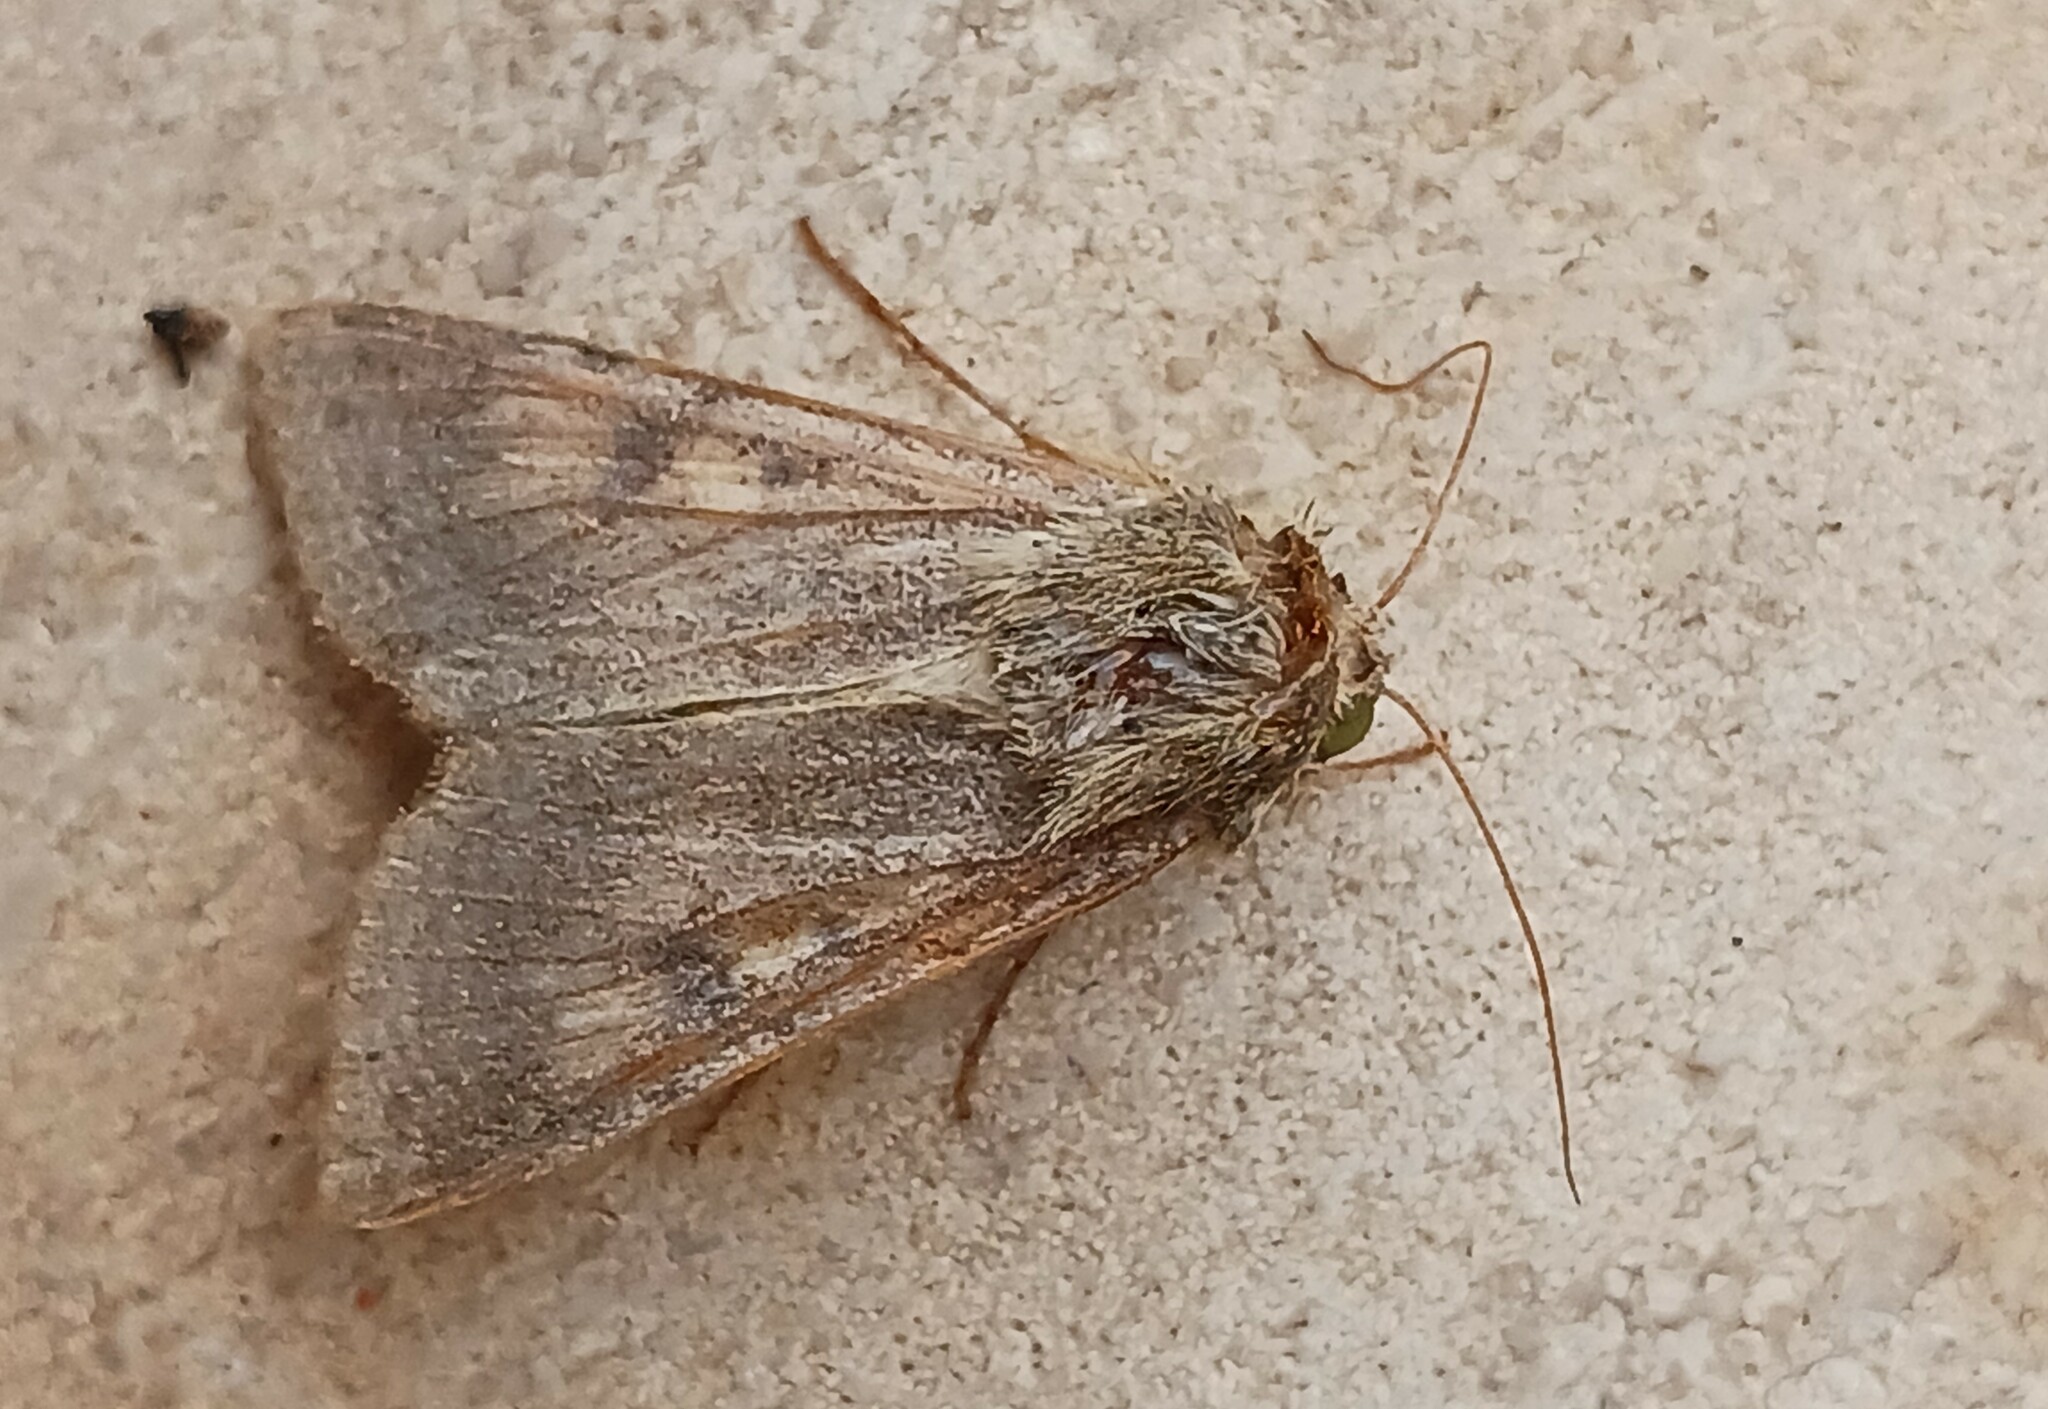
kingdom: Animalia
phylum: Arthropoda
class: Insecta
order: Lepidoptera
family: Noctuidae
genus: Helicoverpa
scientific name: Helicoverpa armigera
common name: Cotton bollworm
